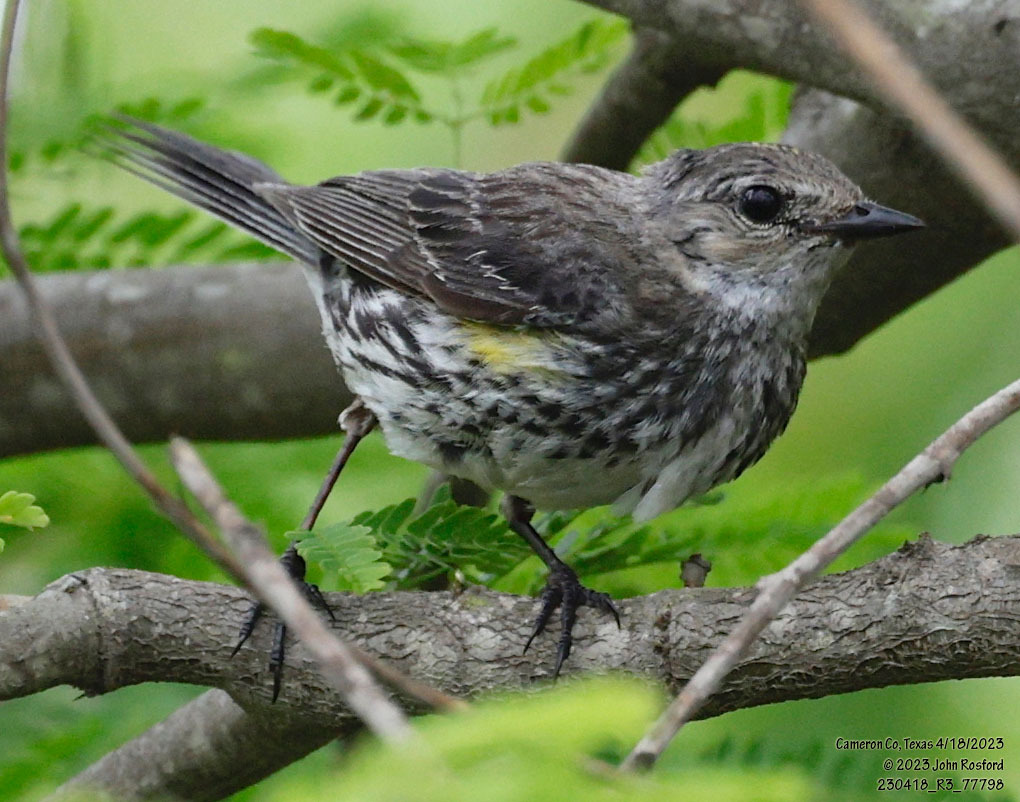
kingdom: Animalia
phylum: Chordata
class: Aves
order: Passeriformes
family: Parulidae
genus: Setophaga
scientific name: Setophaga coronata
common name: Myrtle warbler
